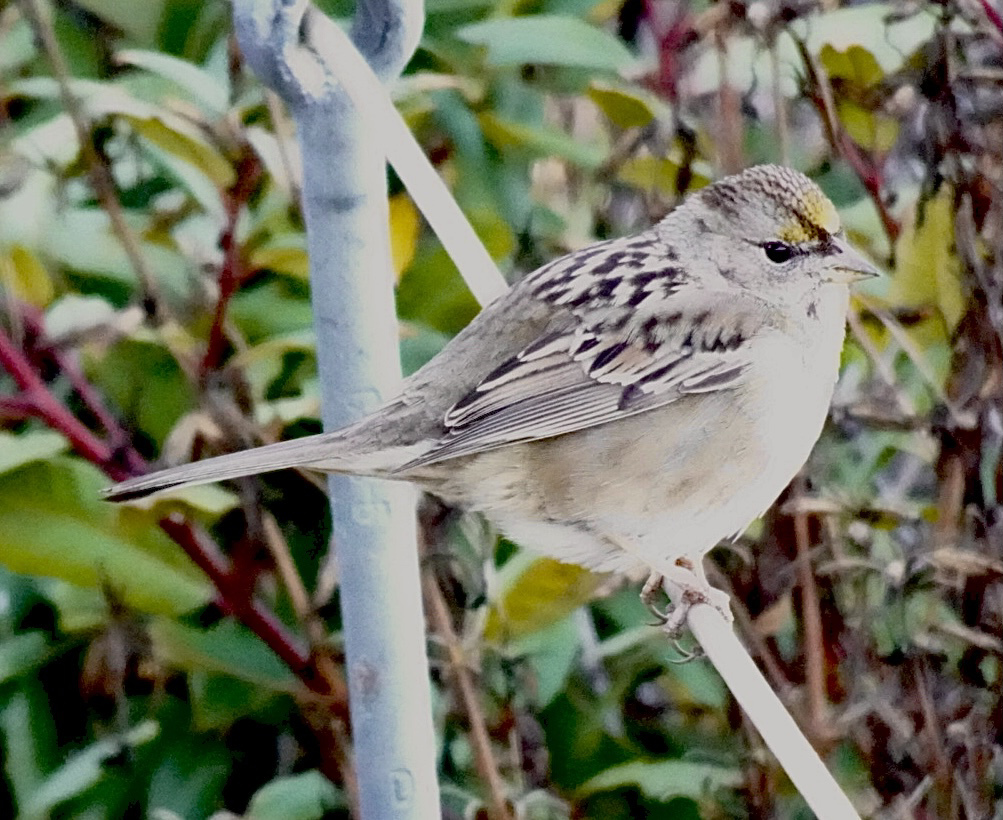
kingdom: Animalia
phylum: Chordata
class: Aves
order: Passeriformes
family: Passerellidae
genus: Zonotrichia
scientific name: Zonotrichia atricapilla
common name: Golden-crowned sparrow
